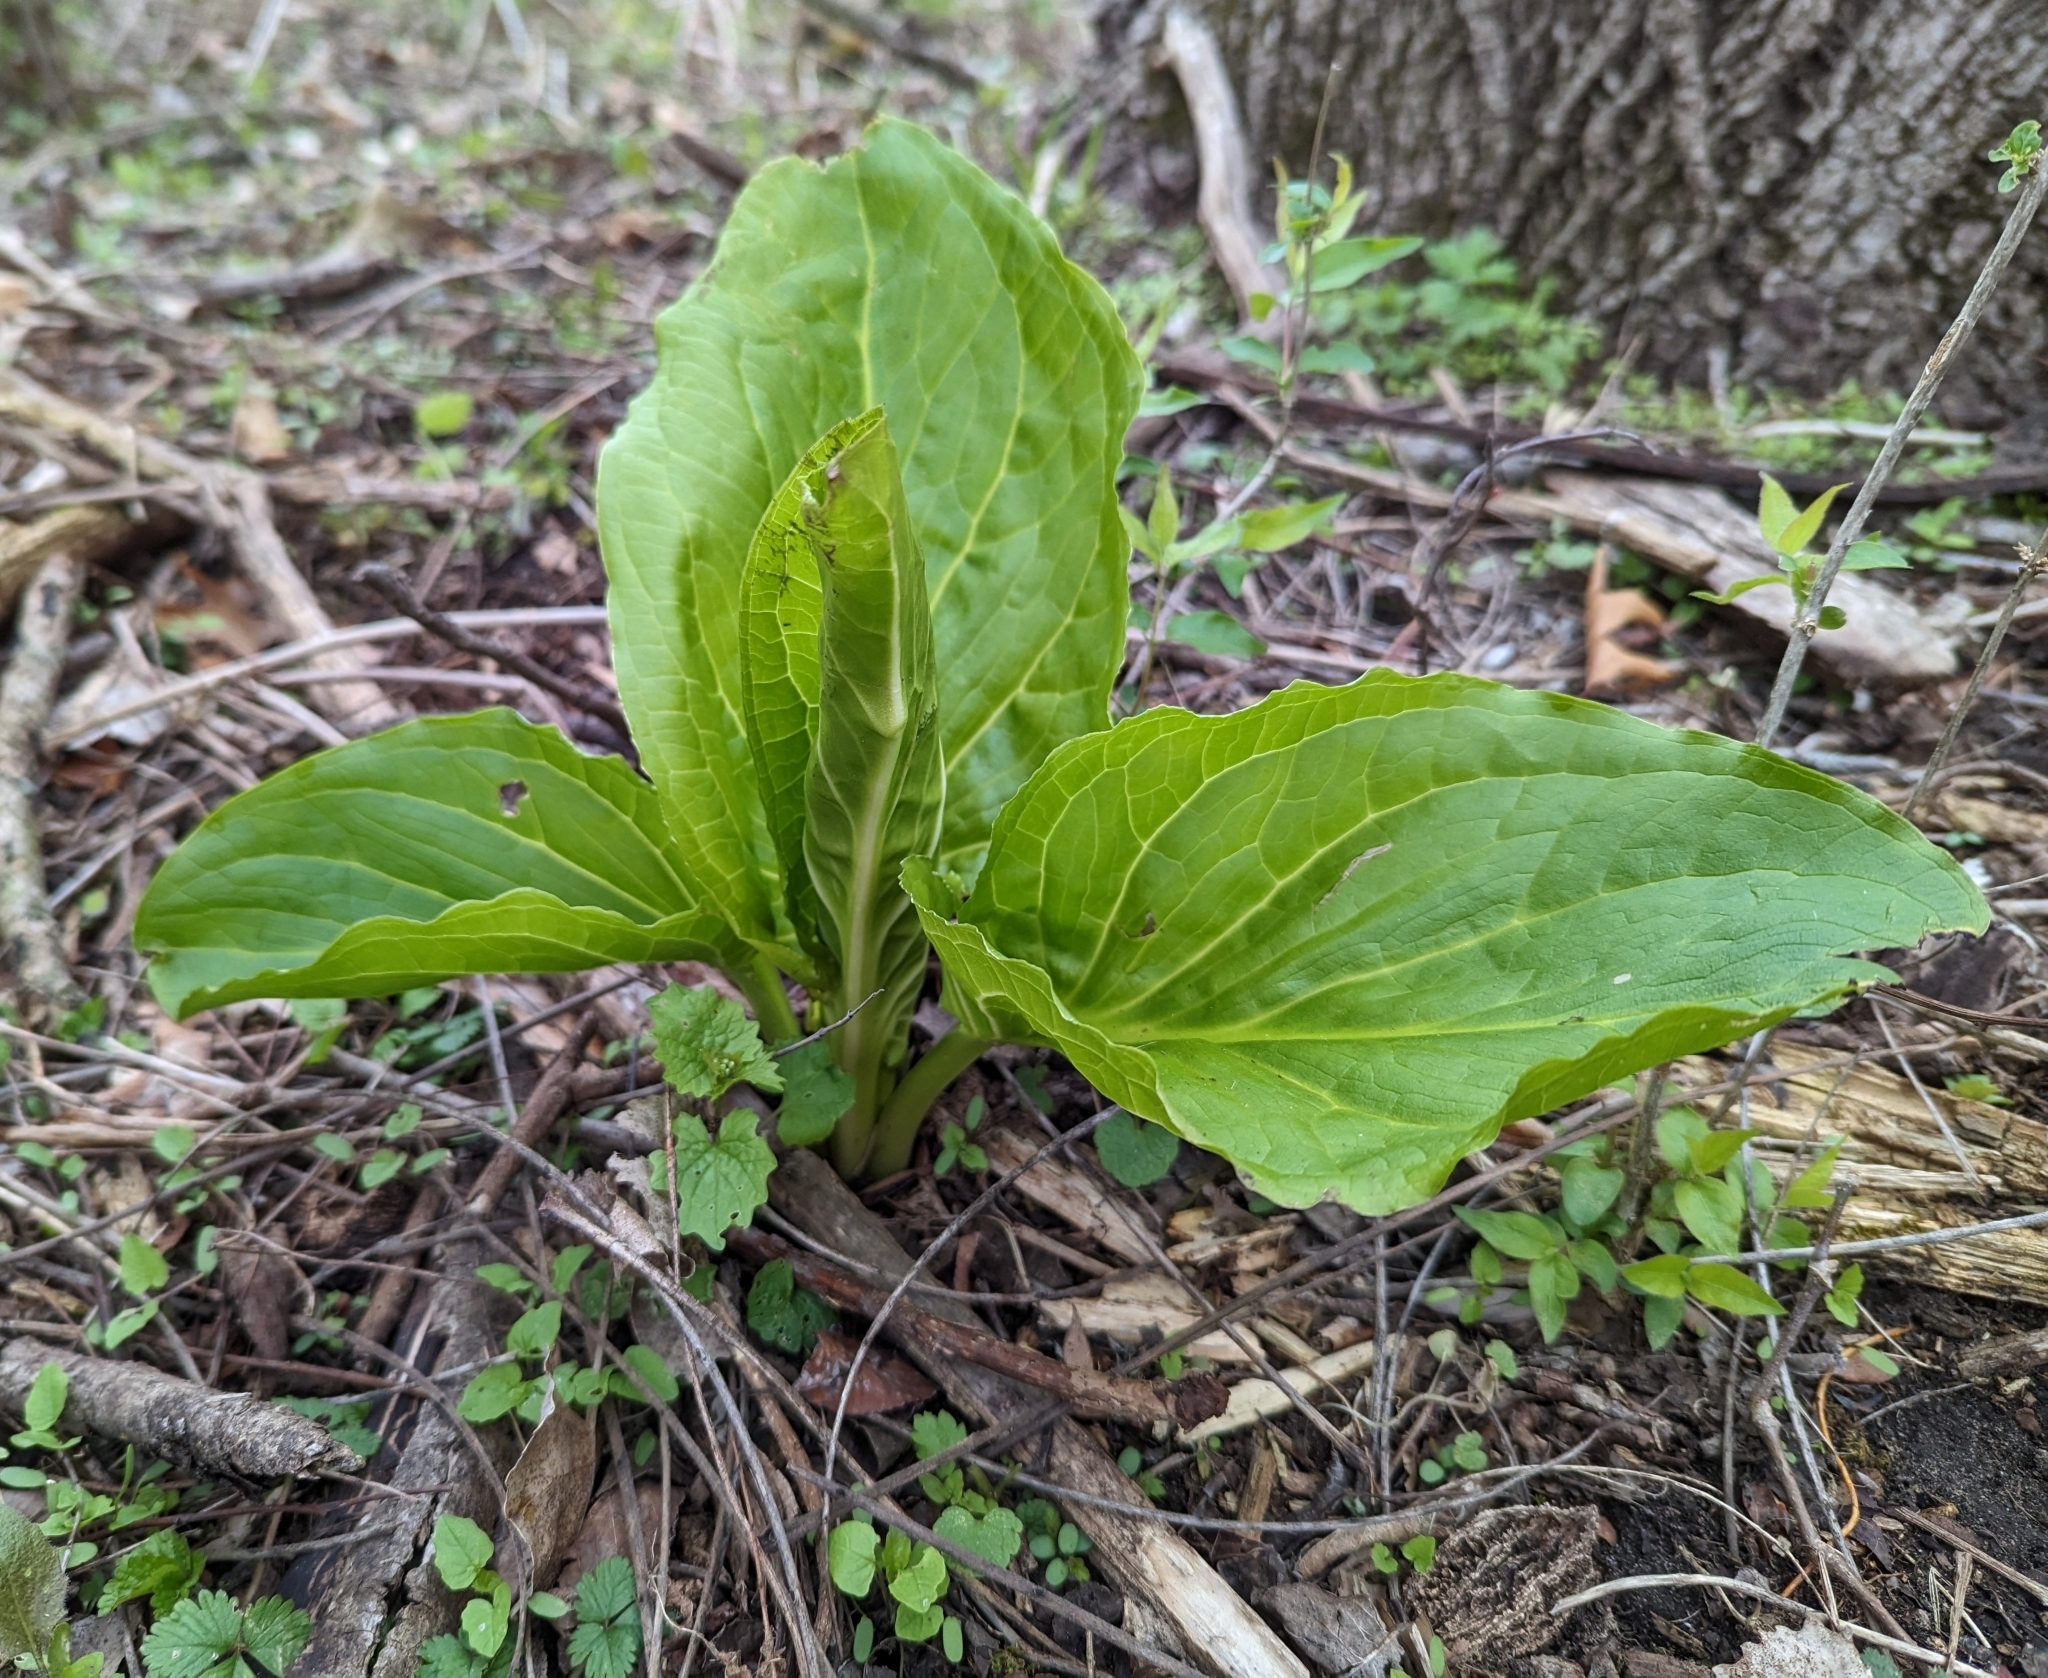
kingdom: Plantae
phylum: Tracheophyta
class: Liliopsida
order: Alismatales
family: Araceae
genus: Symplocarpus
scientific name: Symplocarpus foetidus
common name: Eastern skunk cabbage
